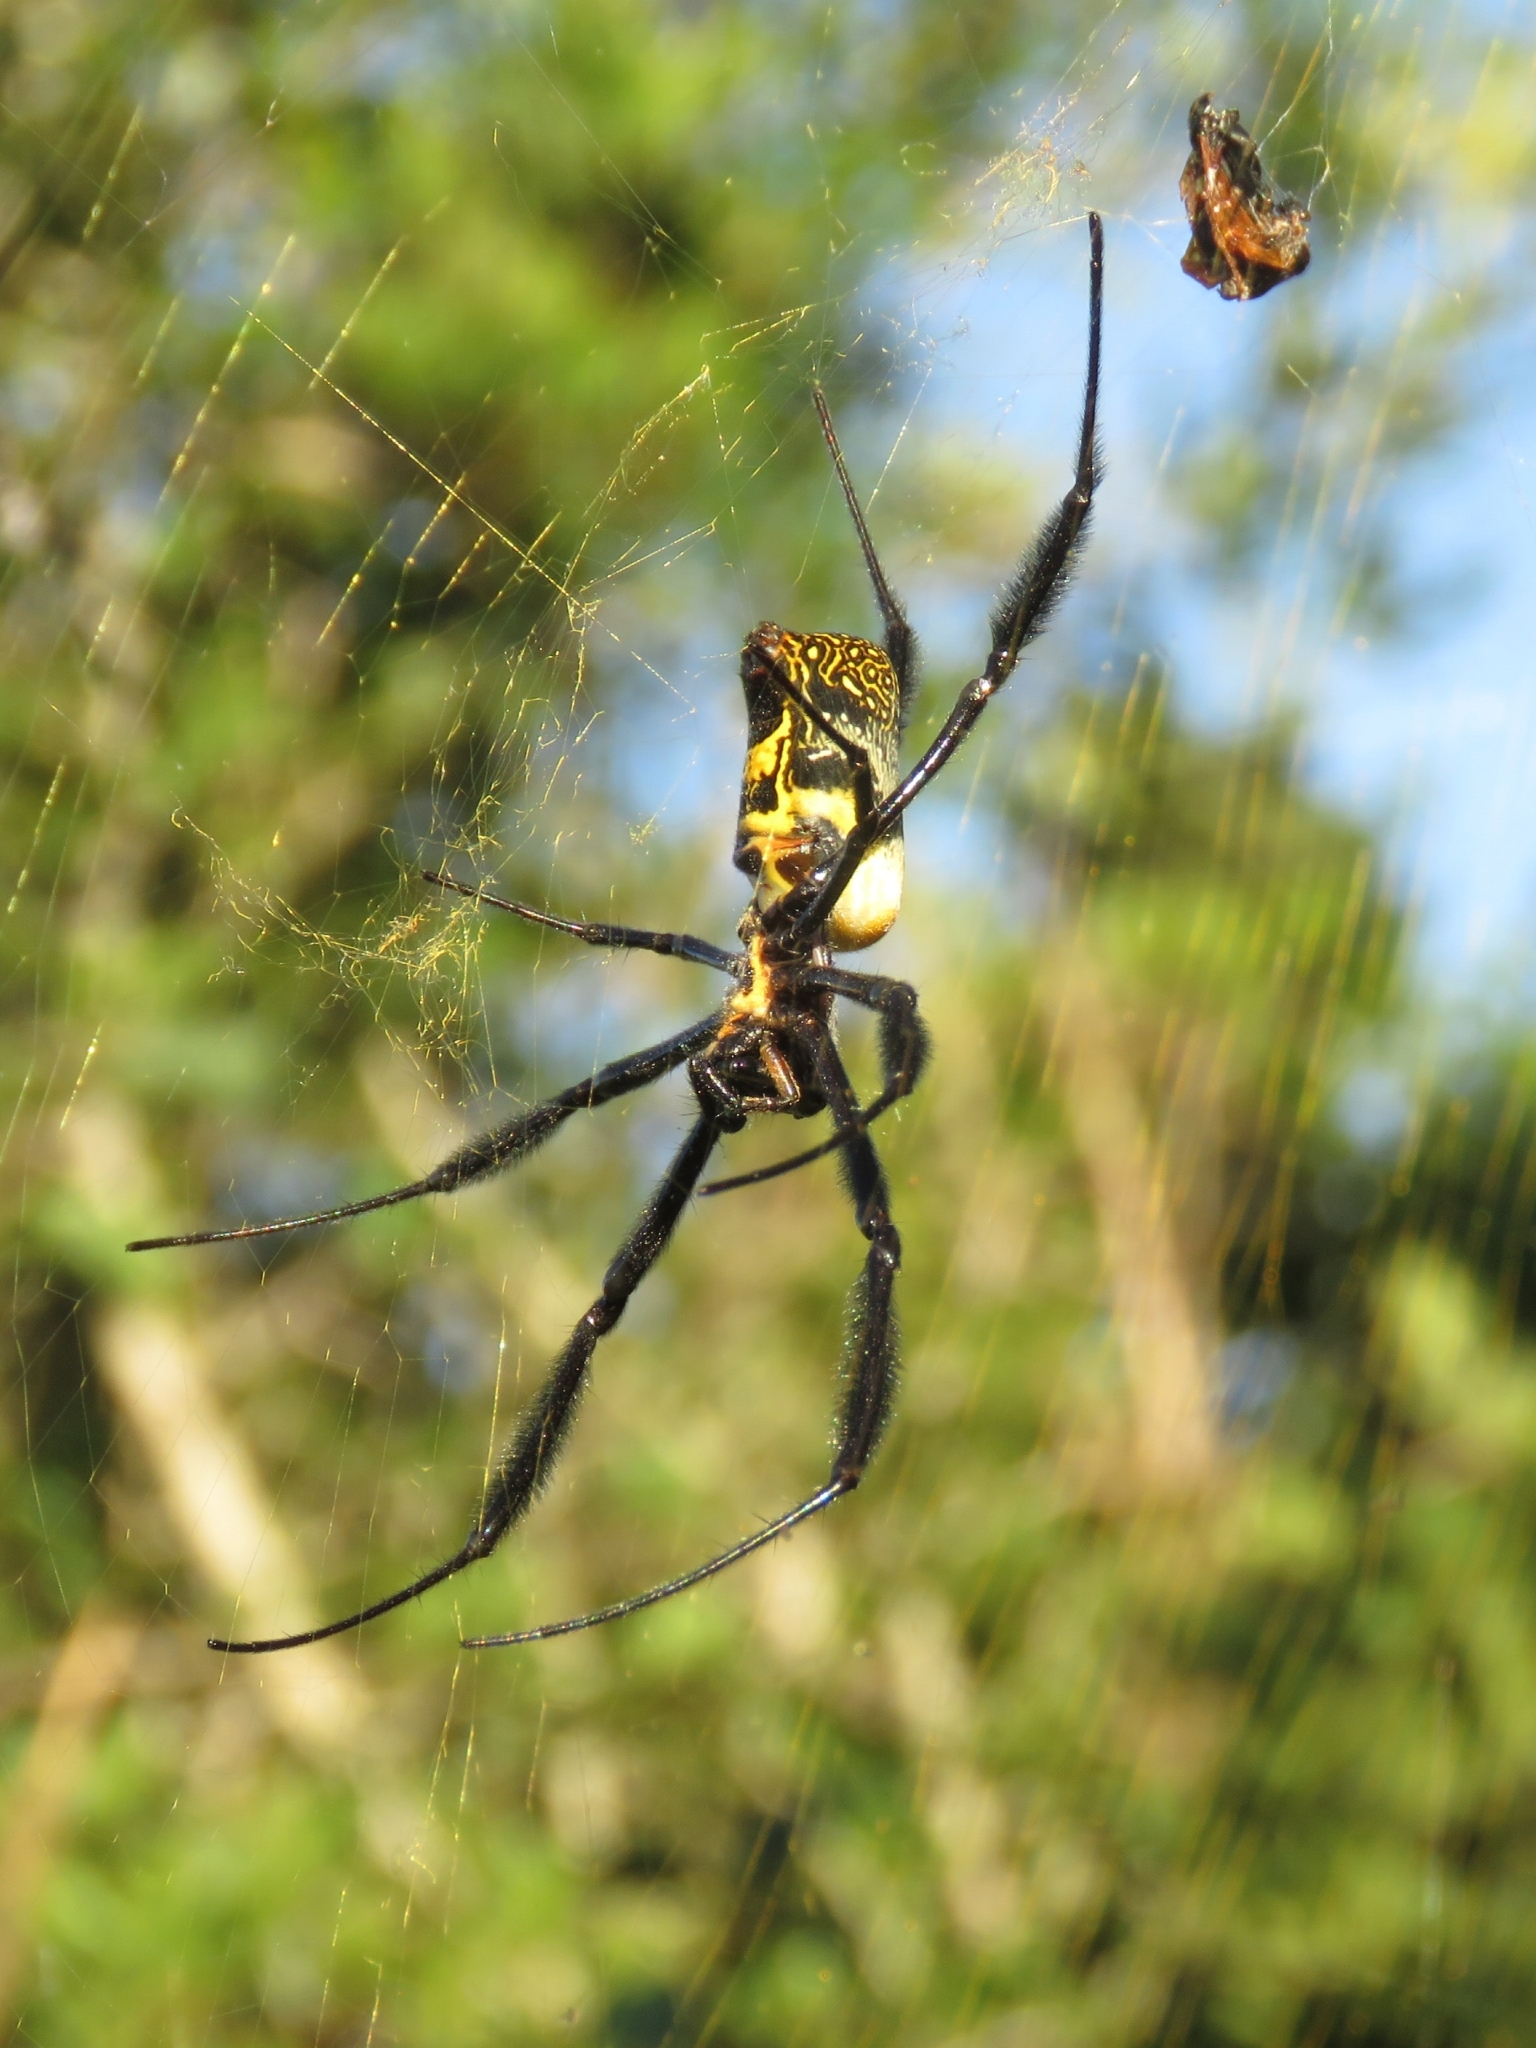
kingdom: Animalia
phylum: Arthropoda
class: Arachnida
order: Araneae
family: Araneidae
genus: Trichonephila
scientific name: Trichonephila fenestrata
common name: Hairy golden orb weaver
